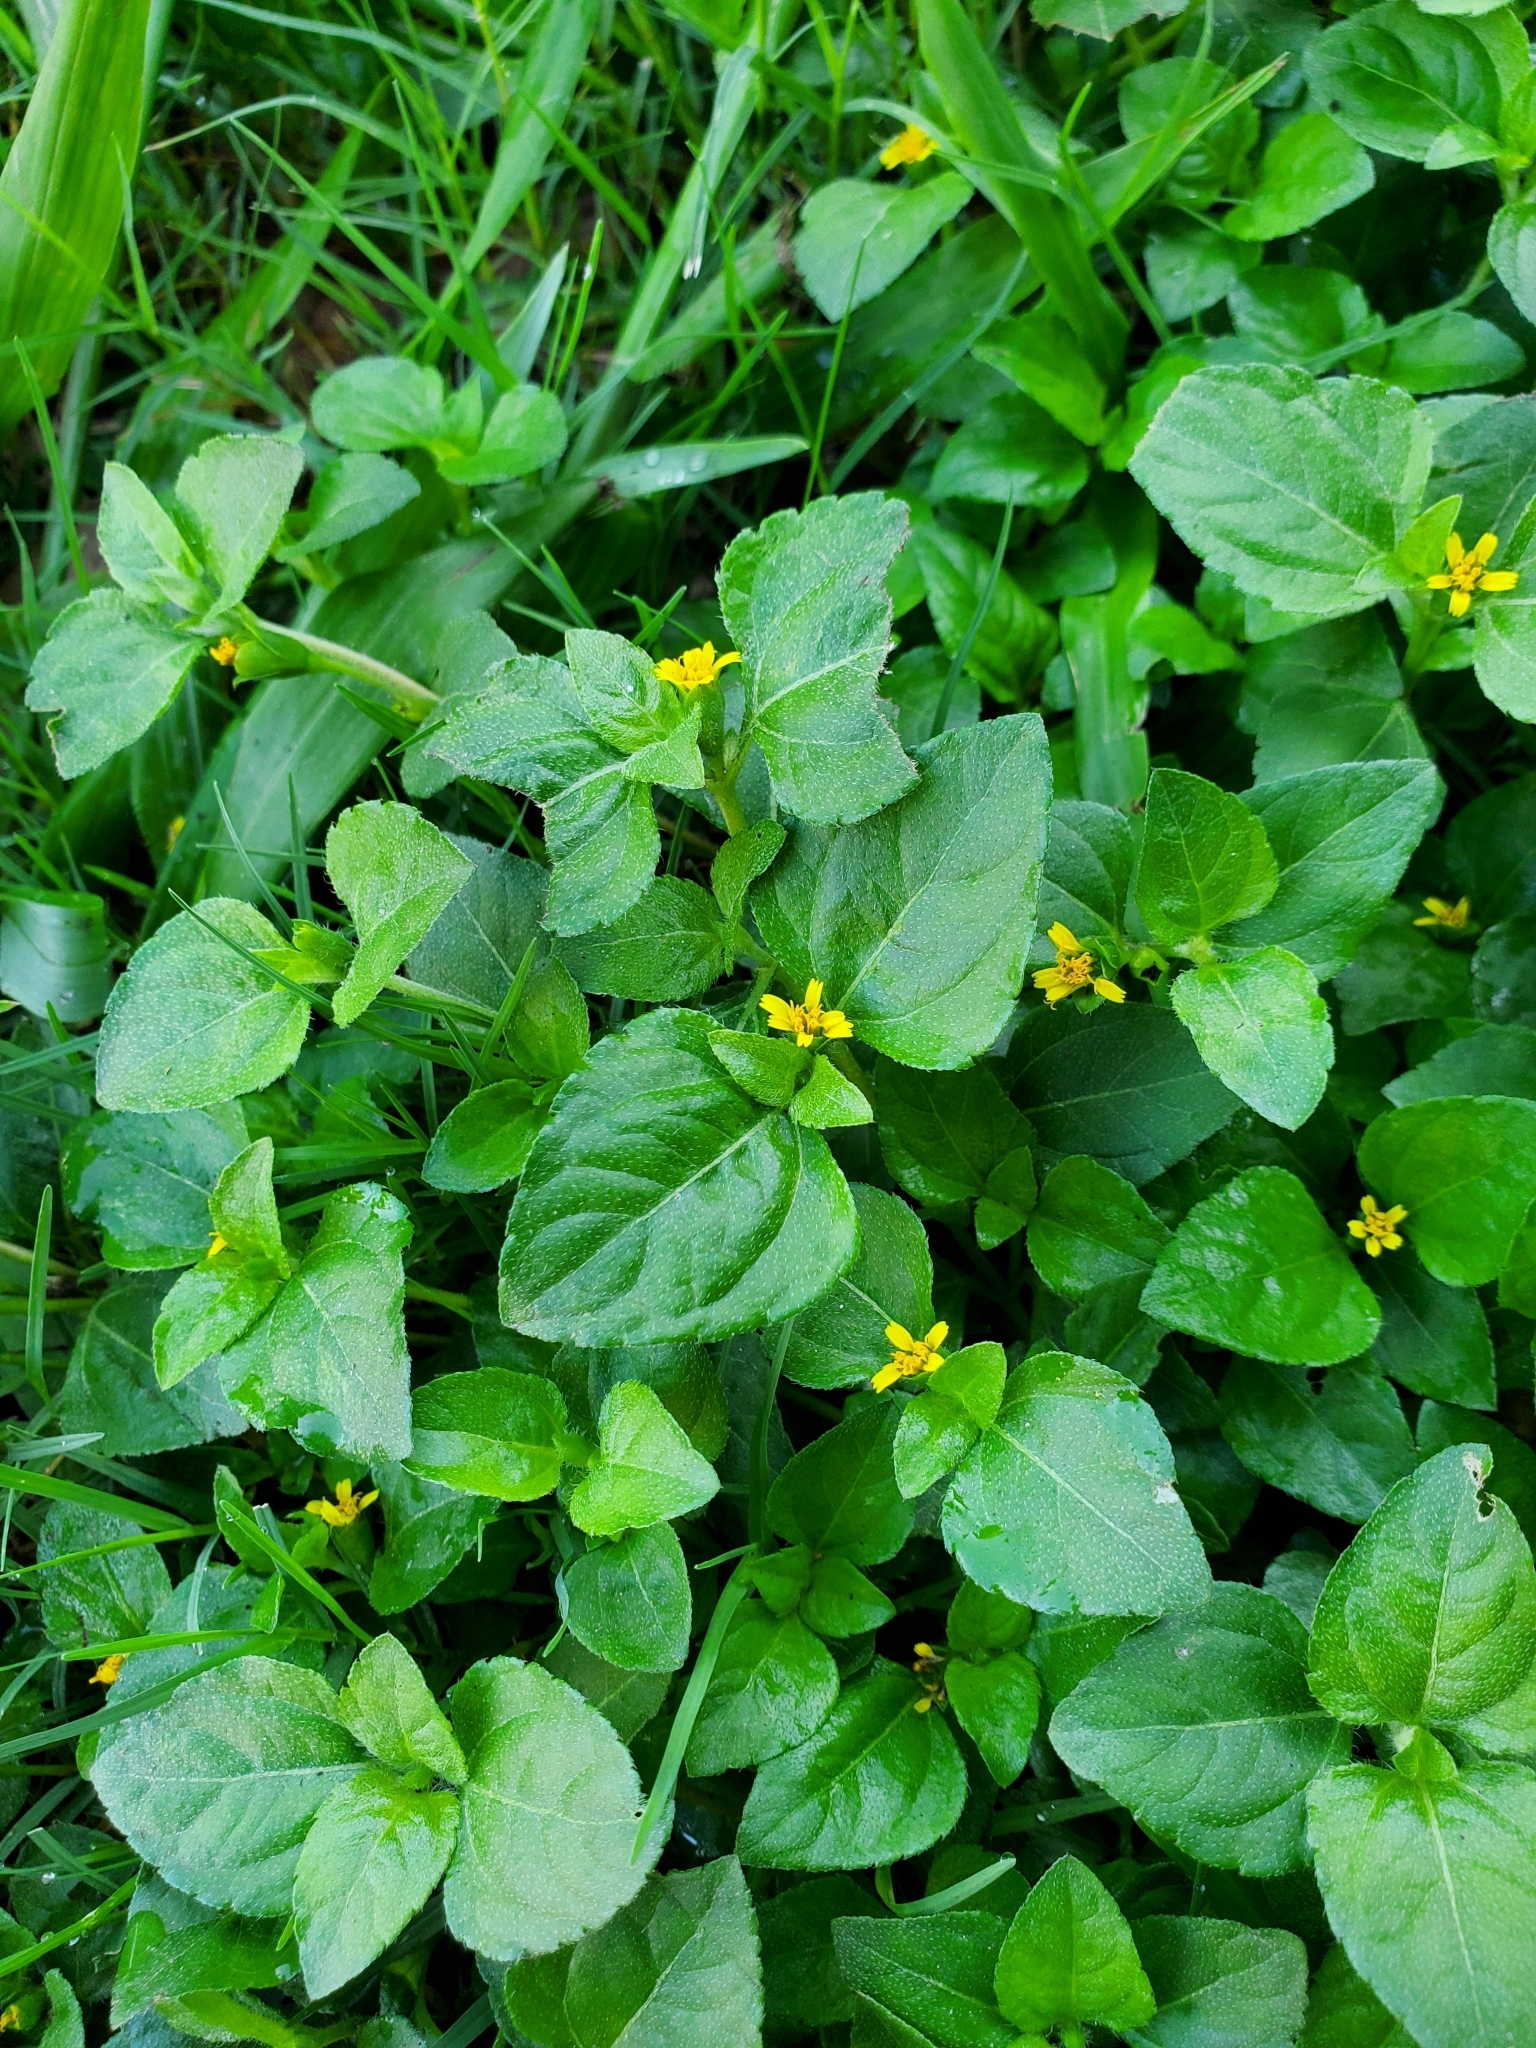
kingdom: Plantae
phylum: Tracheophyta
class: Magnoliopsida
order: Asterales
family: Asteraceae
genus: Calyptocarpus
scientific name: Calyptocarpus vialis
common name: Straggler daisy
